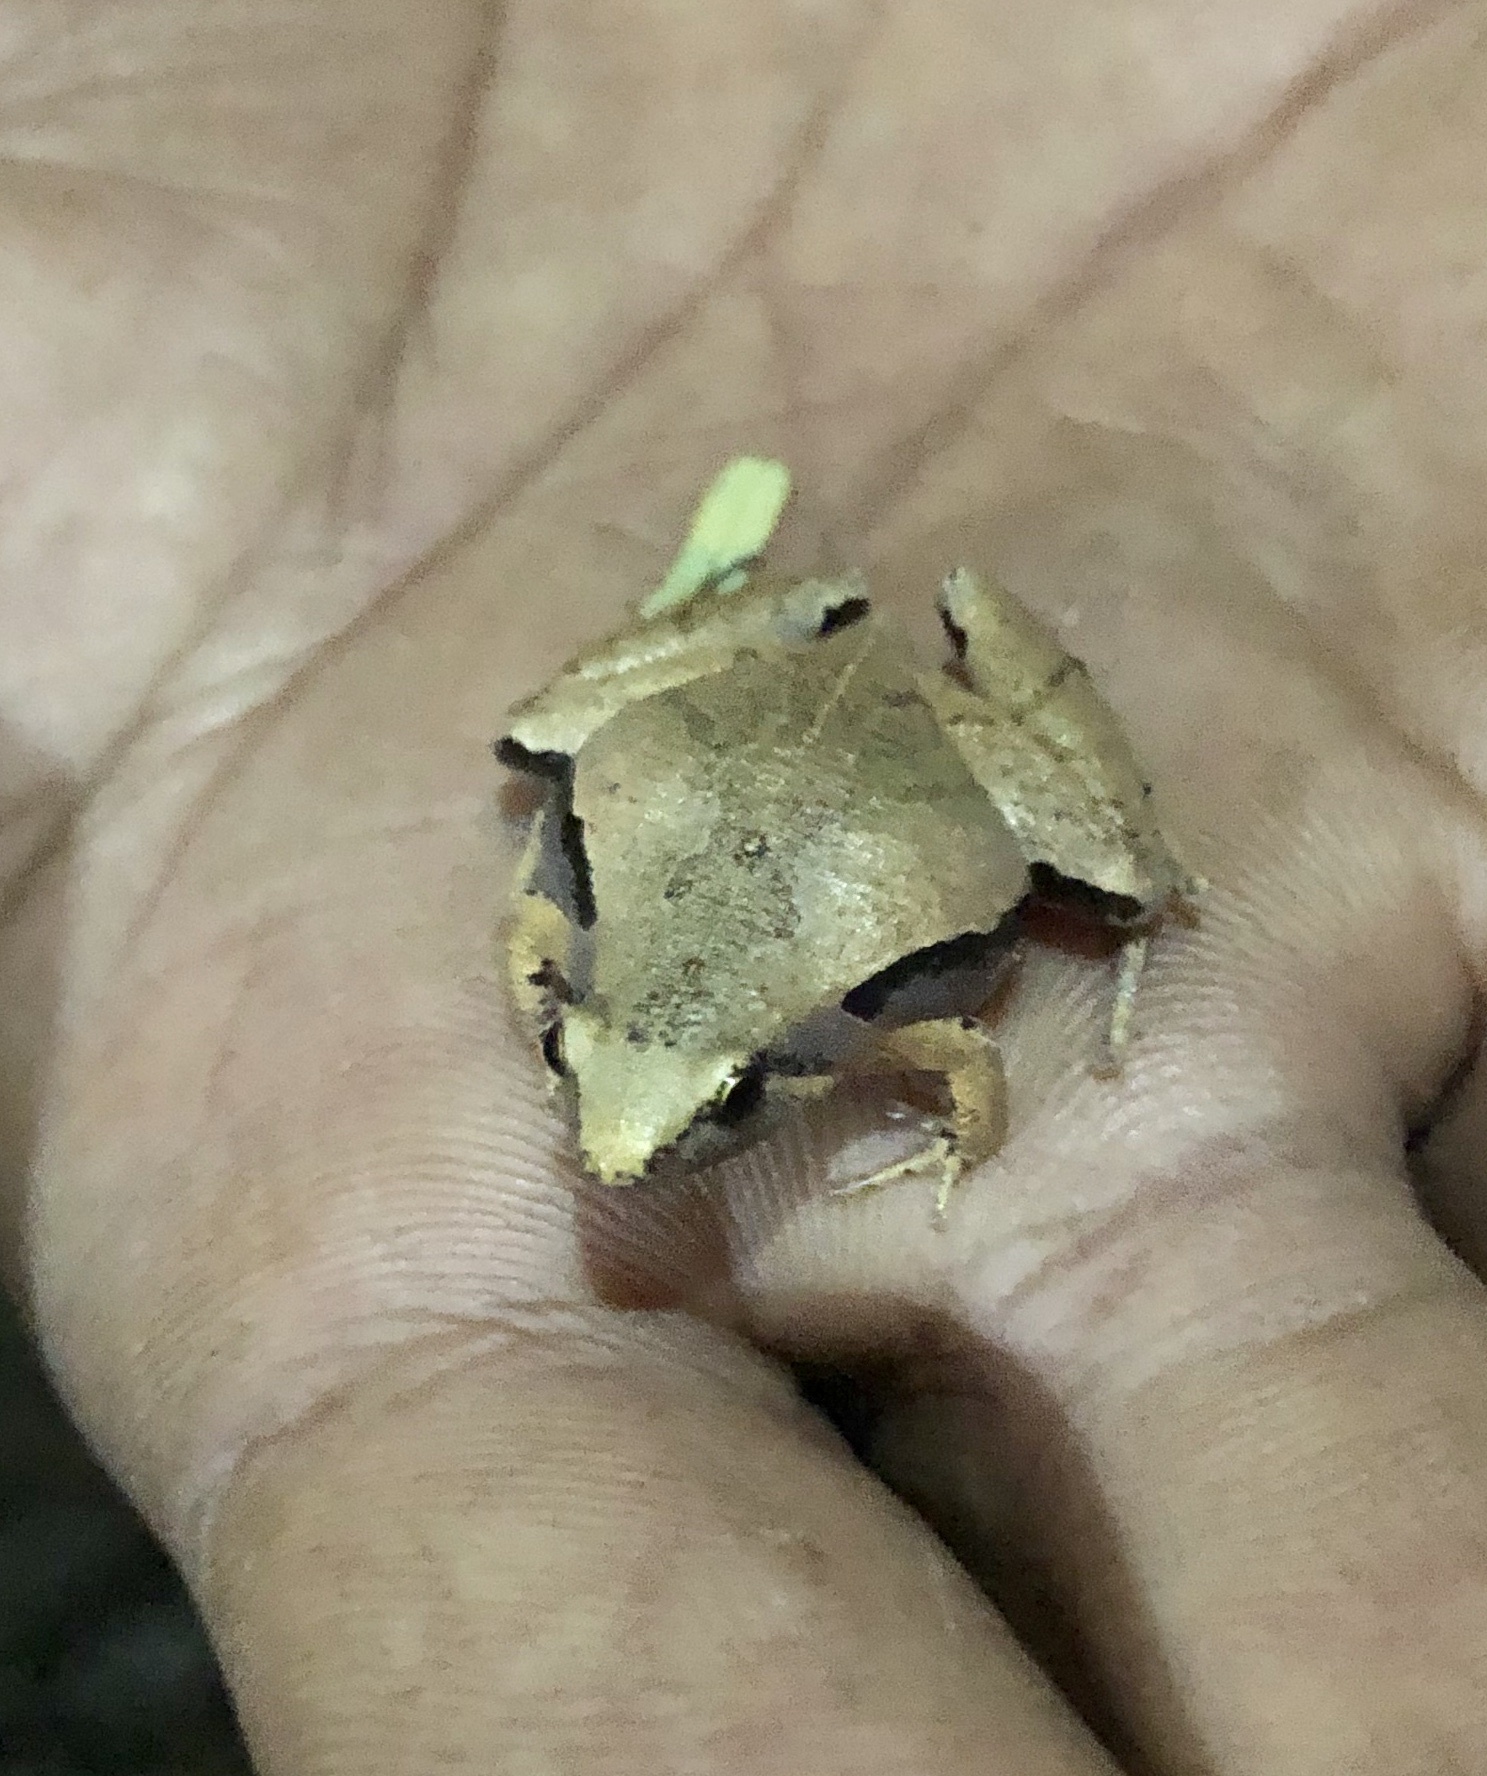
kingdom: Animalia
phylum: Chordata
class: Amphibia
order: Anura
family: Microhylidae
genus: Microhyla
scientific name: Microhyla achatina
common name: Javan chorus frog
